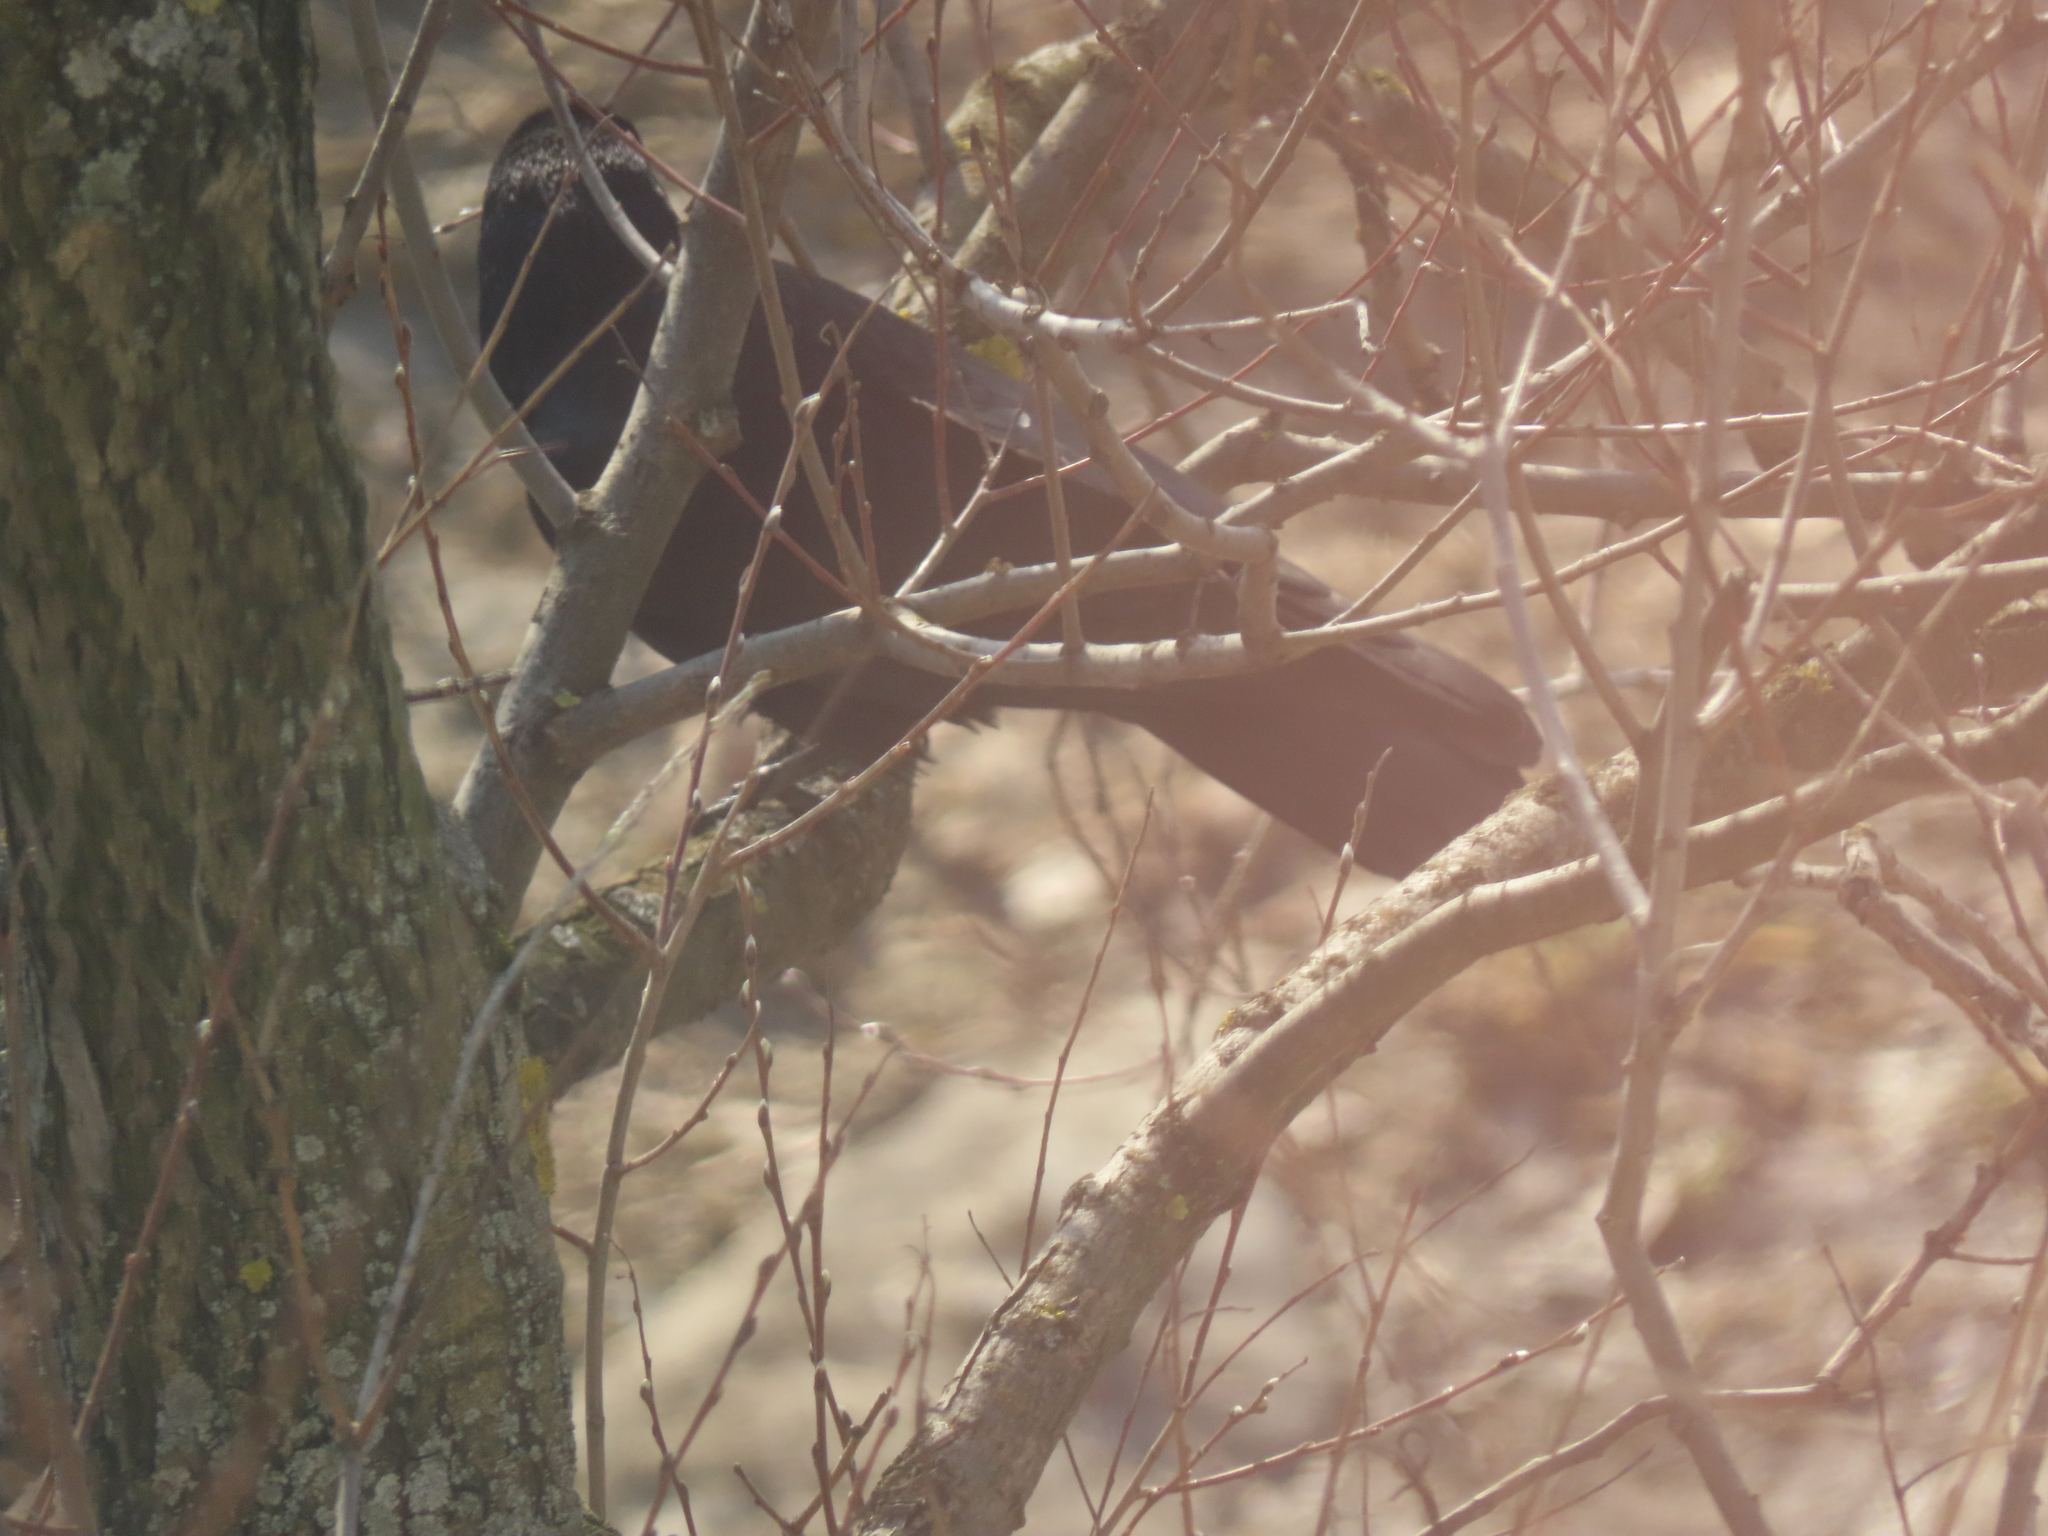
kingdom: Animalia
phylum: Chordata
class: Aves
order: Passeriformes
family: Corvidae
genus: Corvus
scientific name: Corvus frugilegus
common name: Rook
